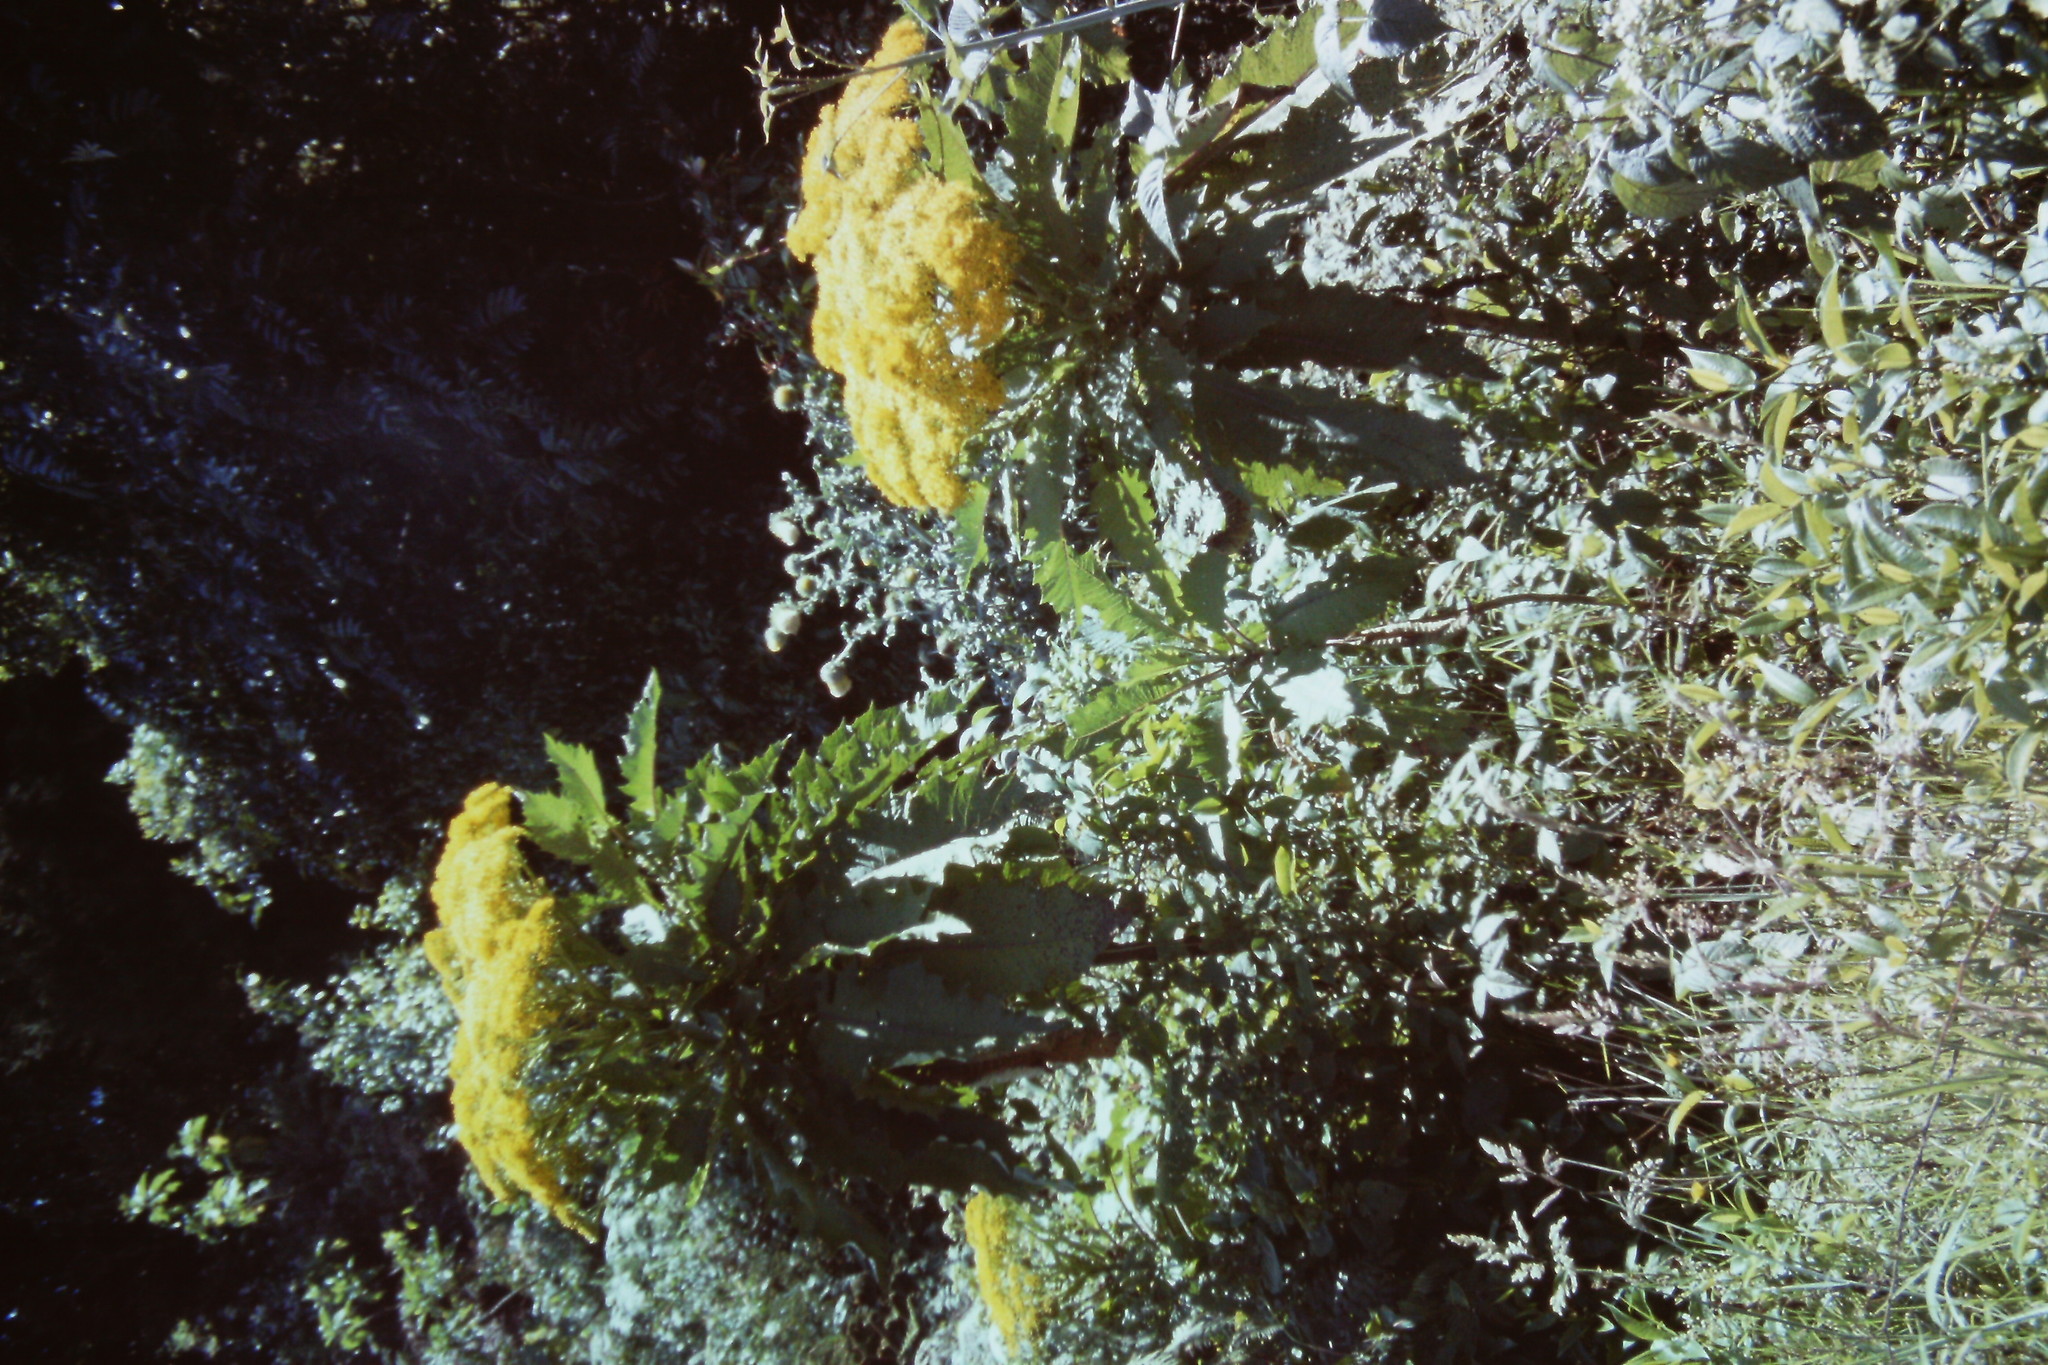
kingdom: Plantae
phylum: Tracheophyta
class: Magnoliopsida
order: Asterales
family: Asteraceae
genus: Telanthophora
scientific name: Telanthophora grandifolia
